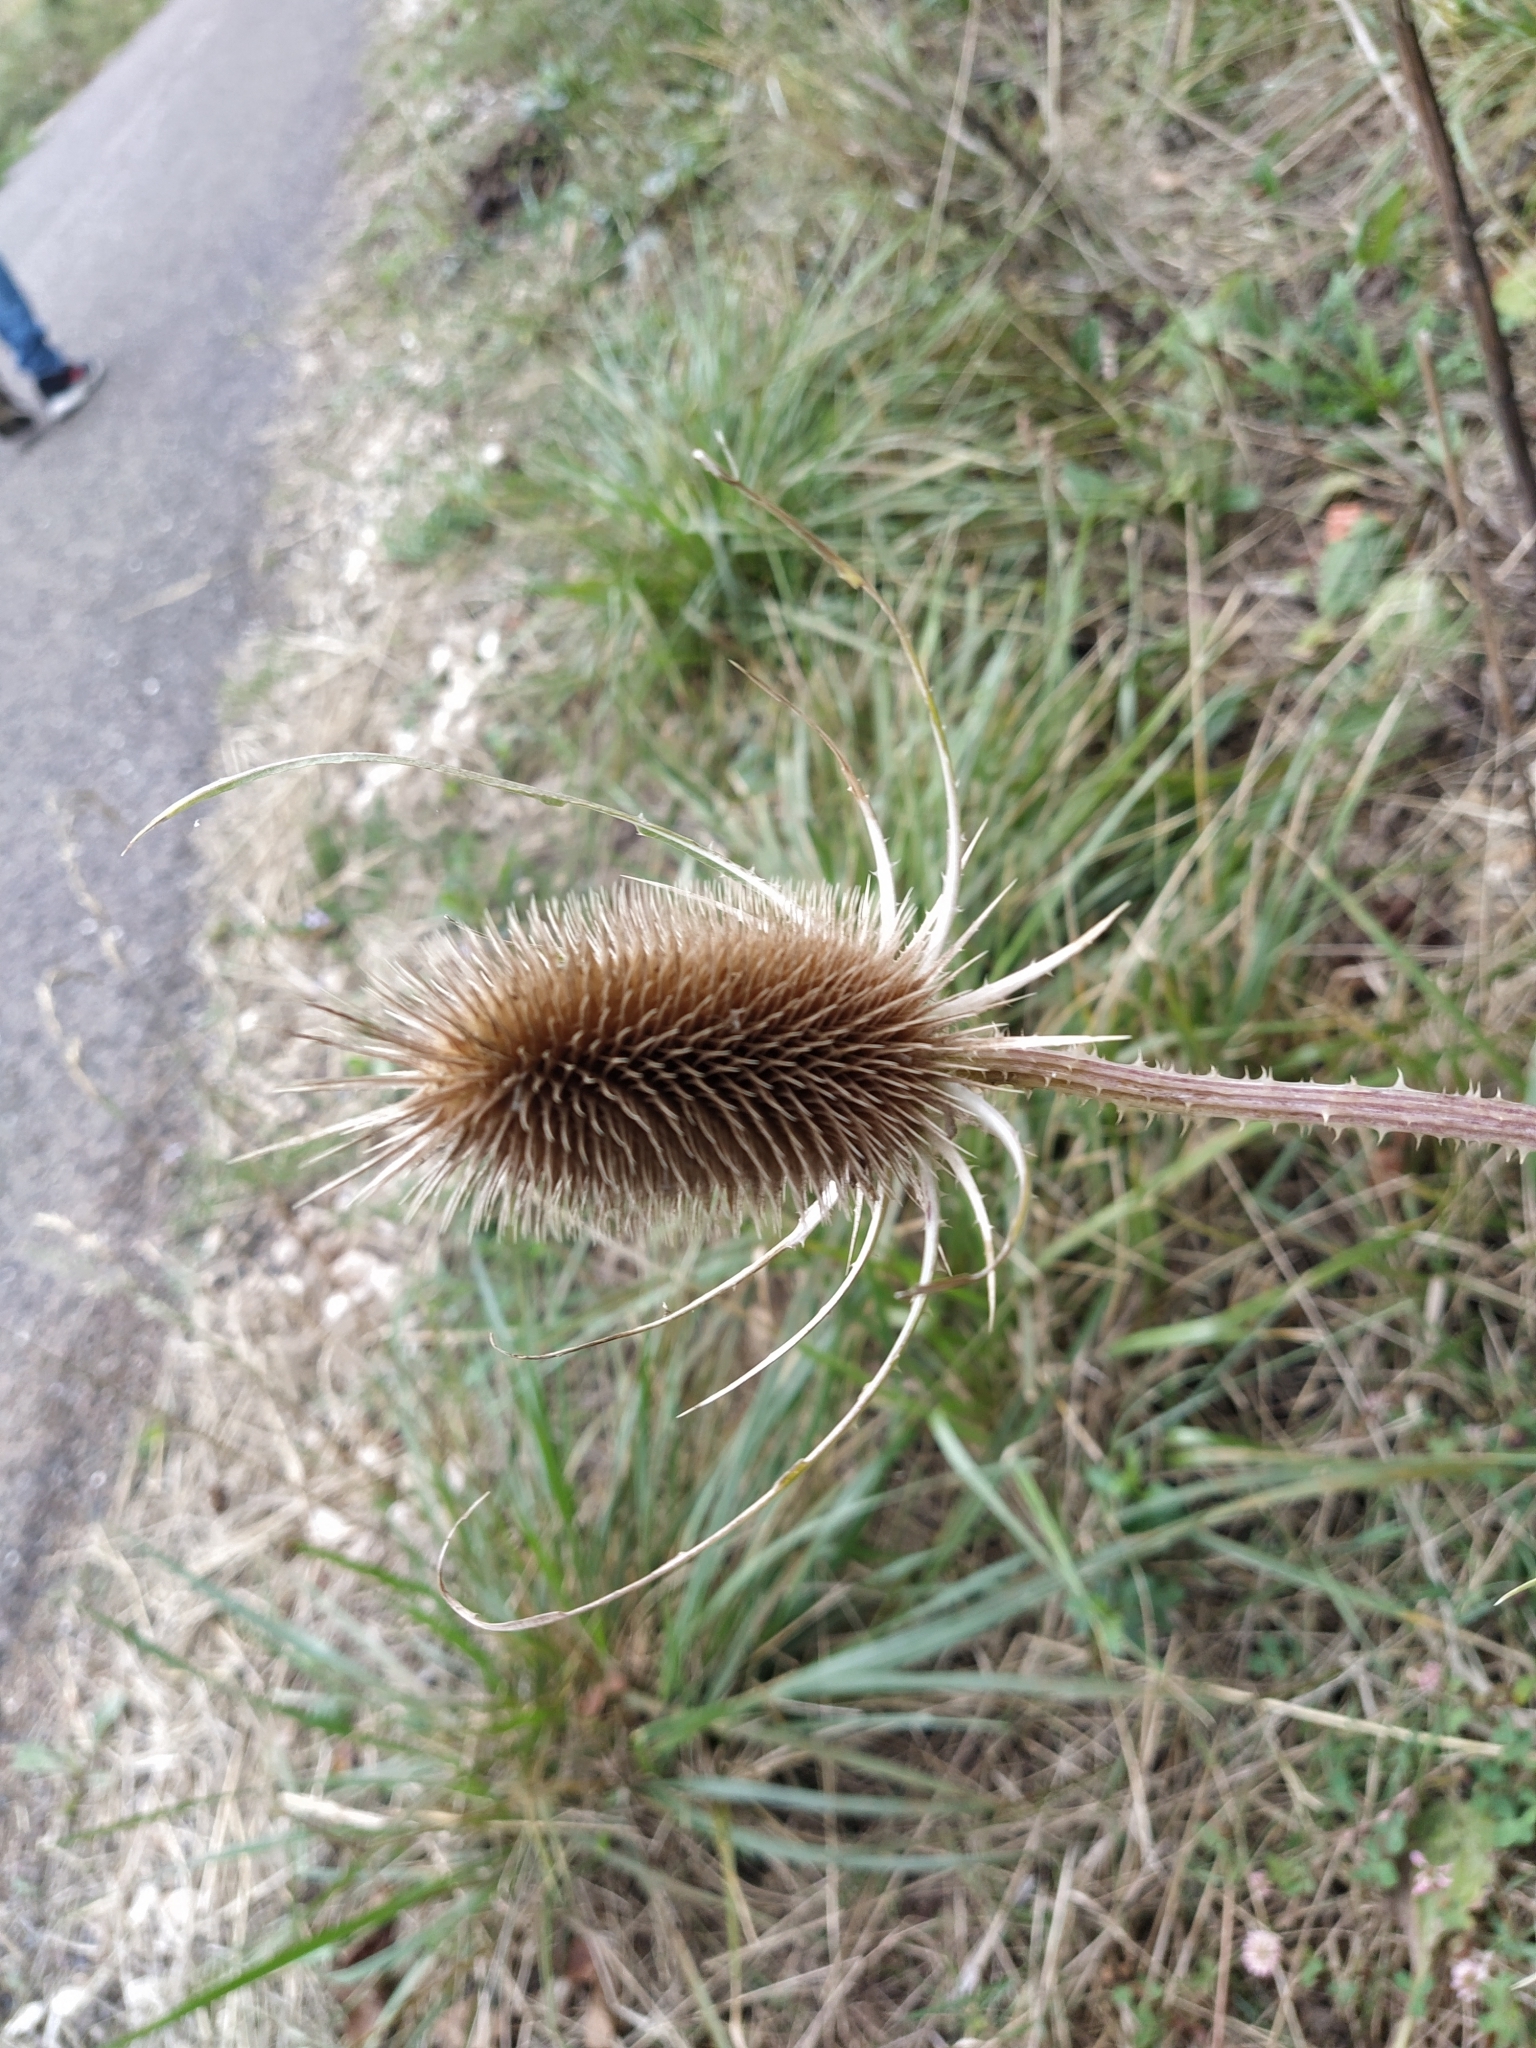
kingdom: Plantae
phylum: Tracheophyta
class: Magnoliopsida
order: Dipsacales
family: Caprifoliaceae
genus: Dipsacus
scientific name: Dipsacus fullonum
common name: Teasel
